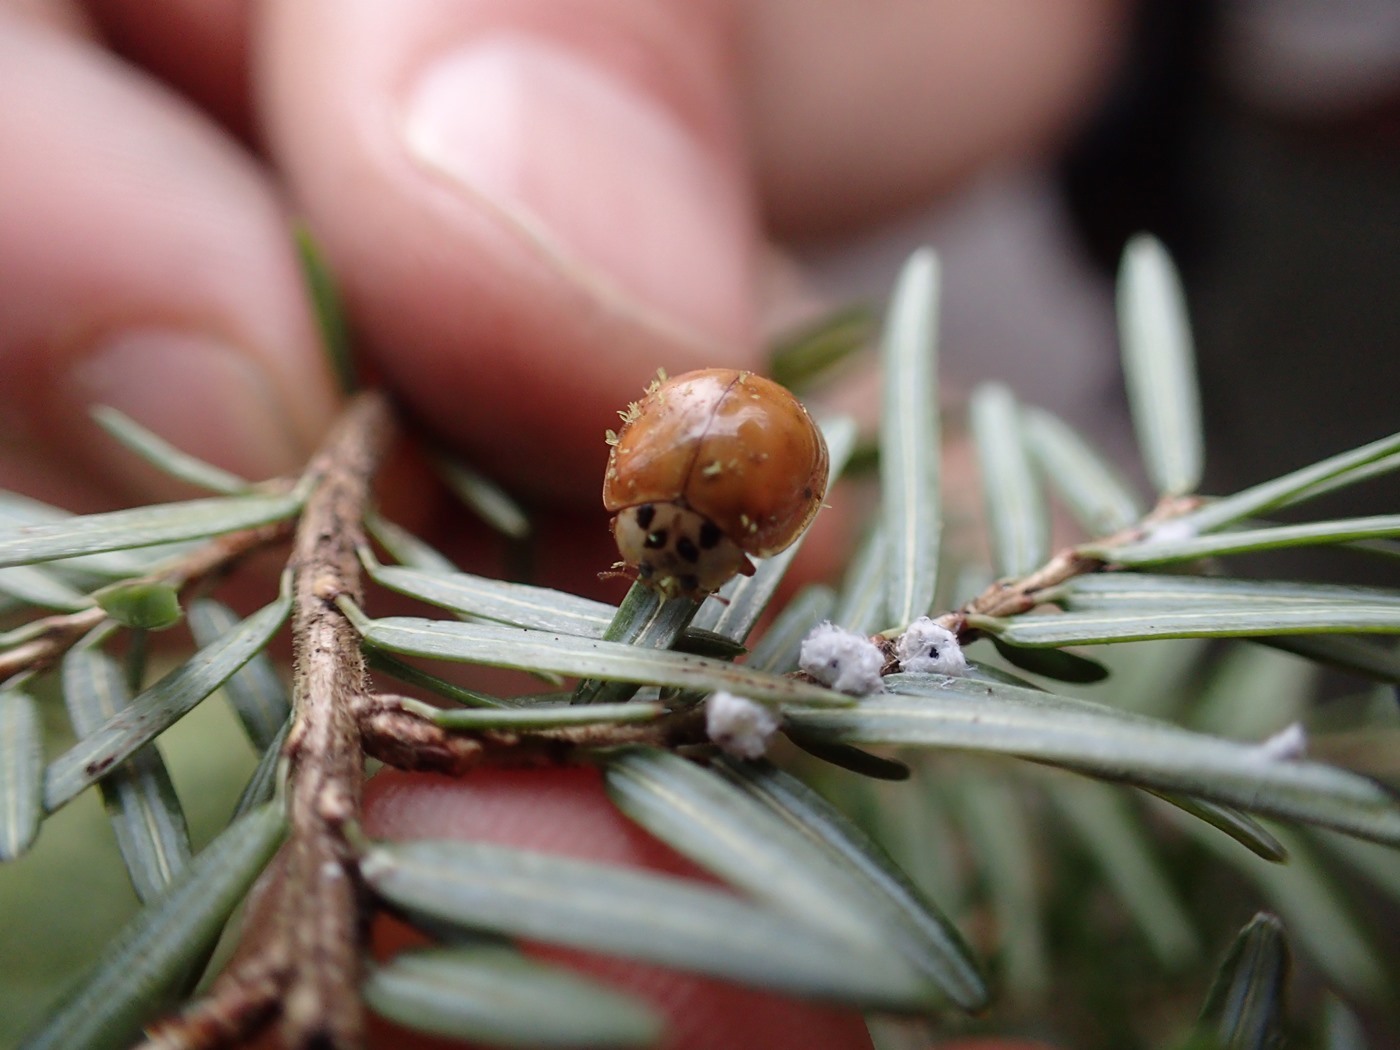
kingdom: Animalia
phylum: Arthropoda
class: Insecta
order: Coleoptera
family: Coccinellidae
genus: Harmonia
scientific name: Harmonia axyridis
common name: Harlequin ladybird
